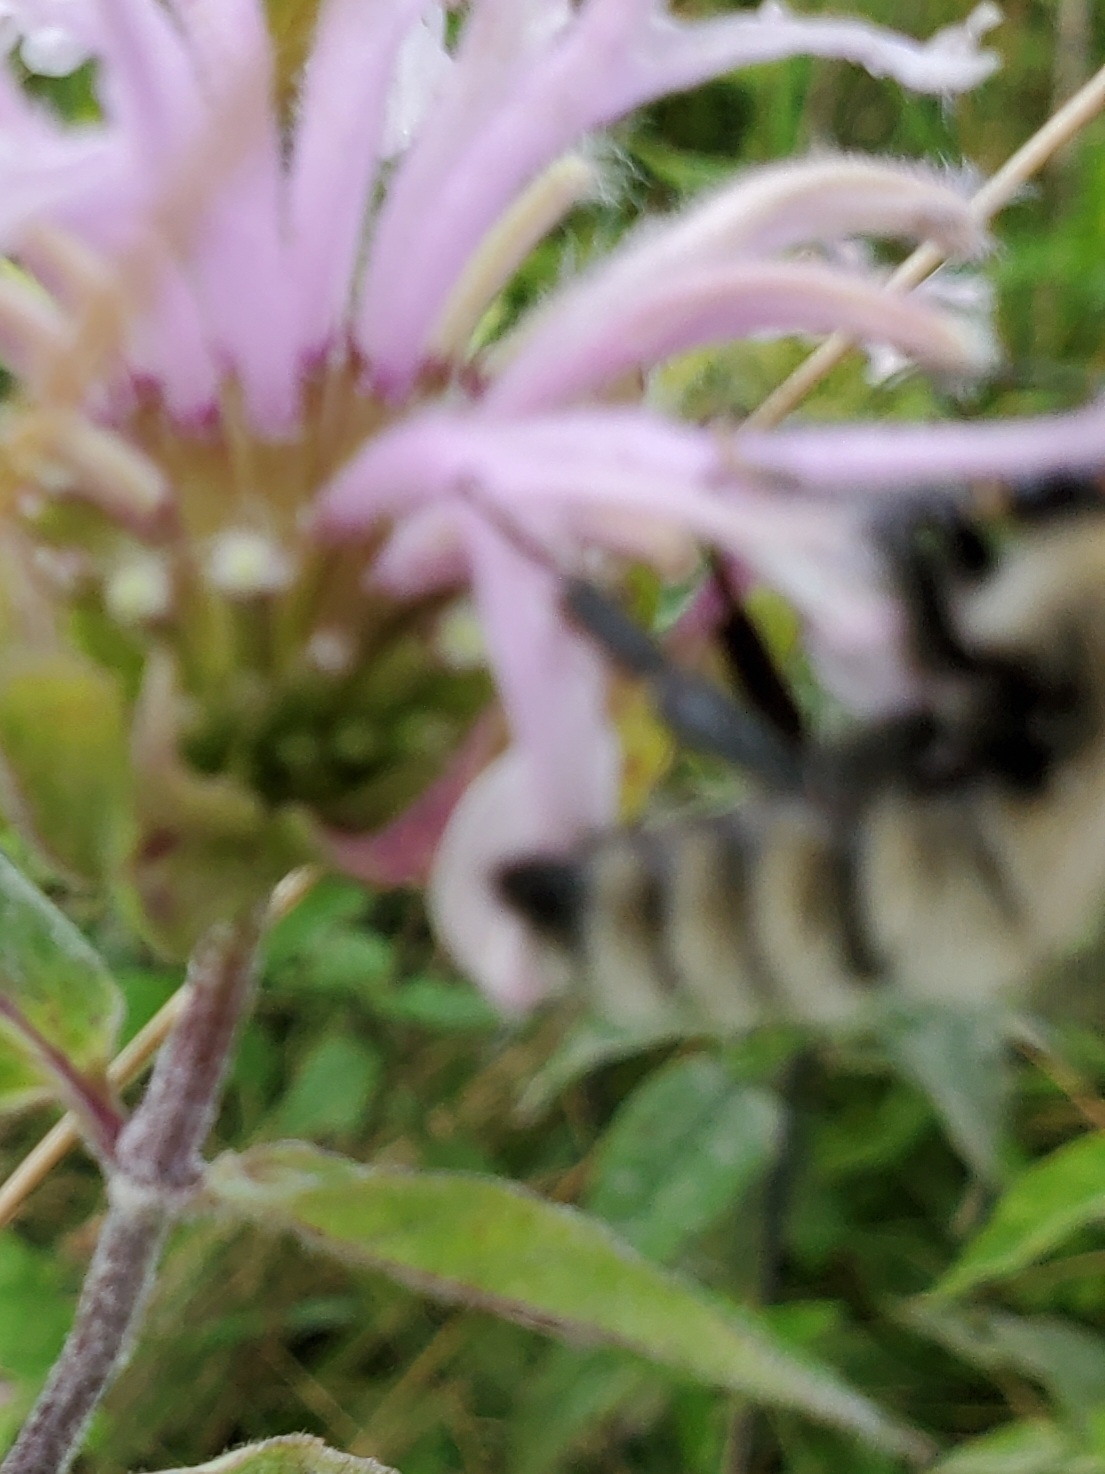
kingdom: Animalia
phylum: Arthropoda
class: Insecta
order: Hymenoptera
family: Apidae
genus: Bombus
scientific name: Bombus fervidus
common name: Yellow bumble bee
